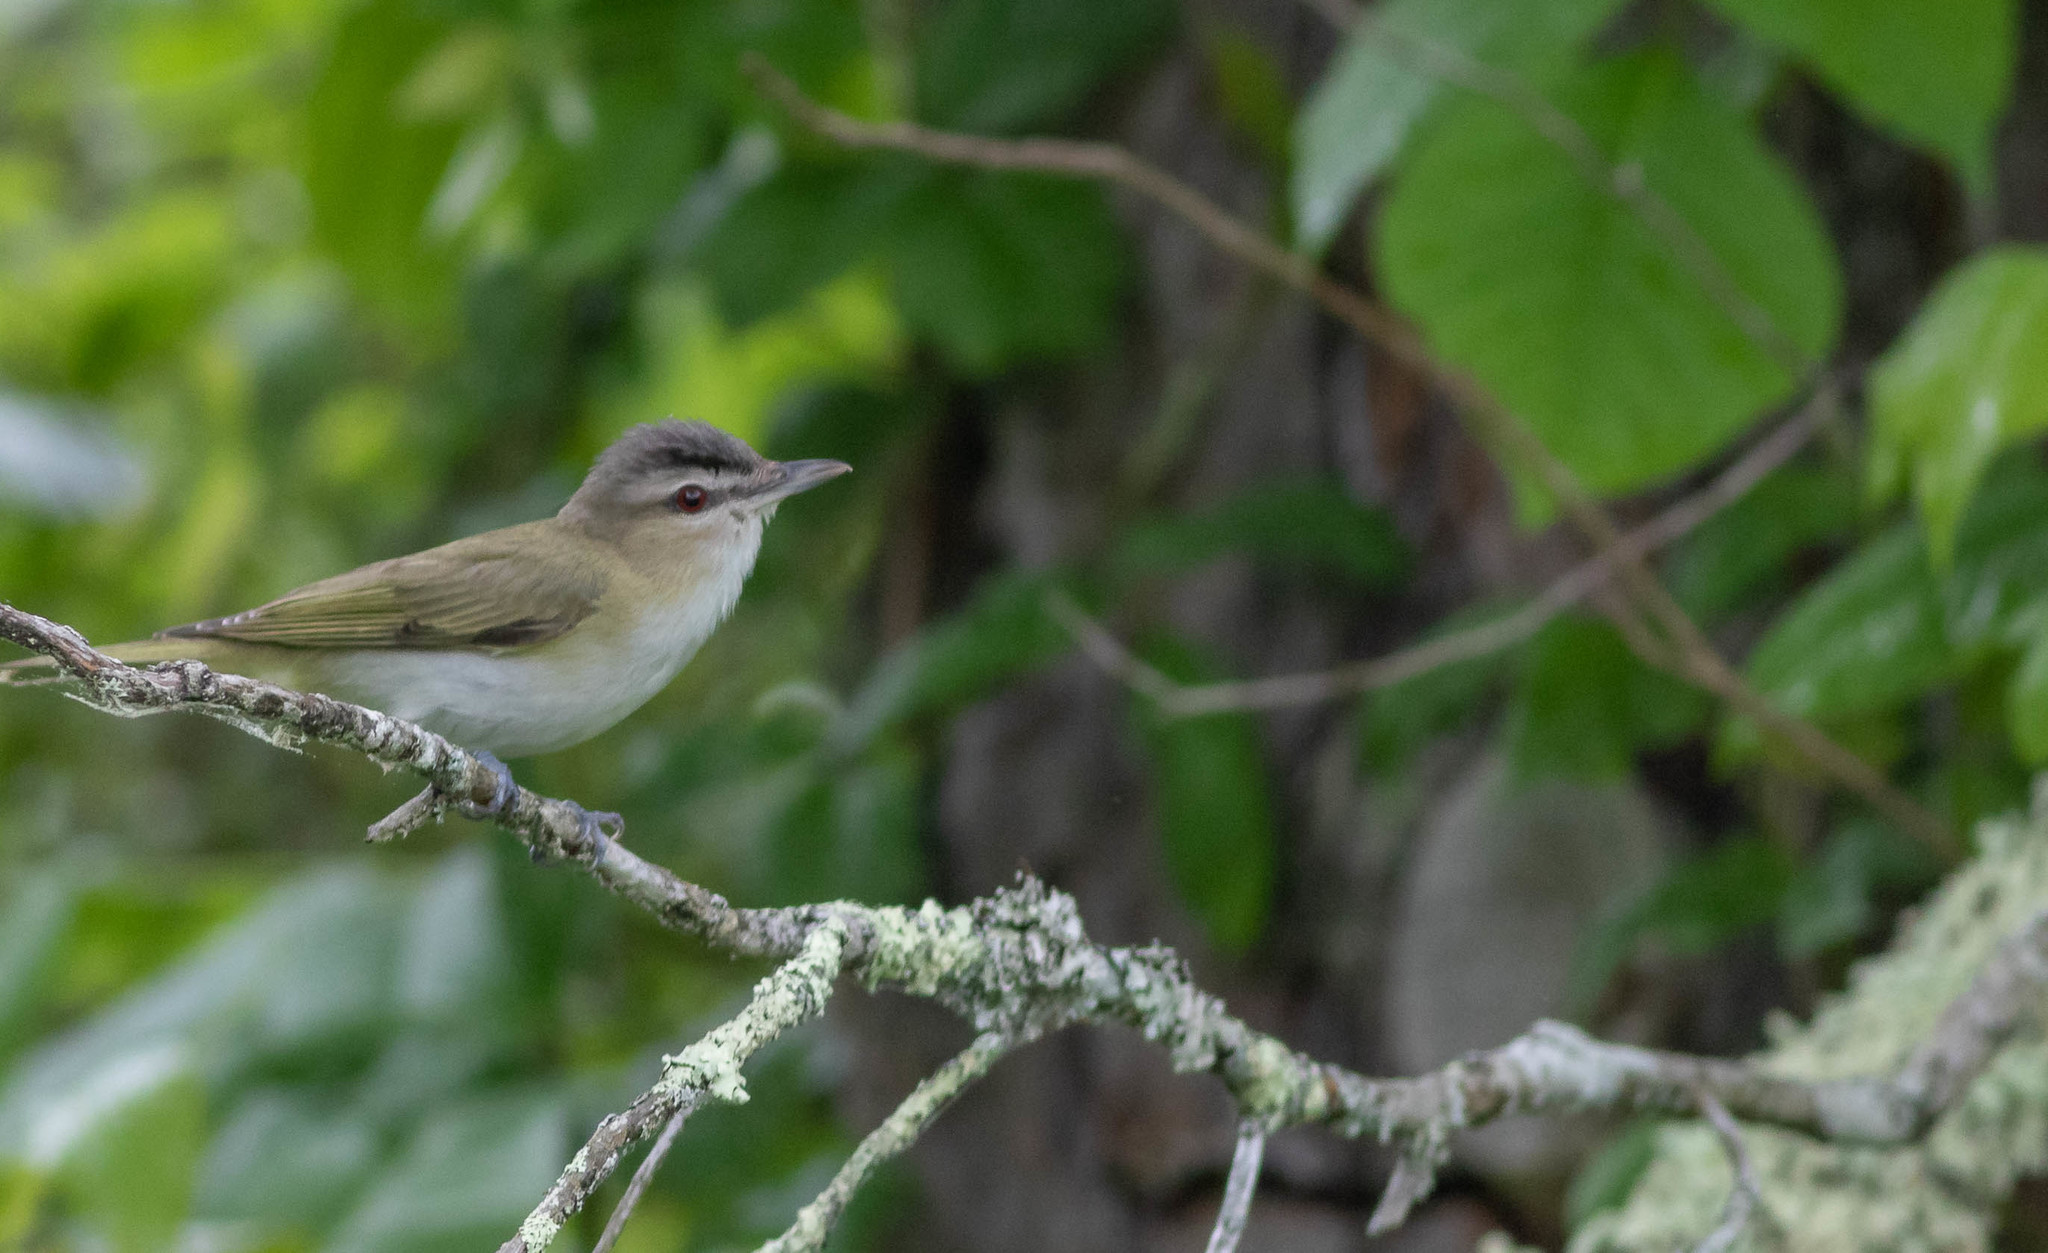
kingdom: Animalia
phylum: Chordata
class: Aves
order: Passeriformes
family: Vireonidae
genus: Vireo
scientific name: Vireo olivaceus
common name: Red-eyed vireo
